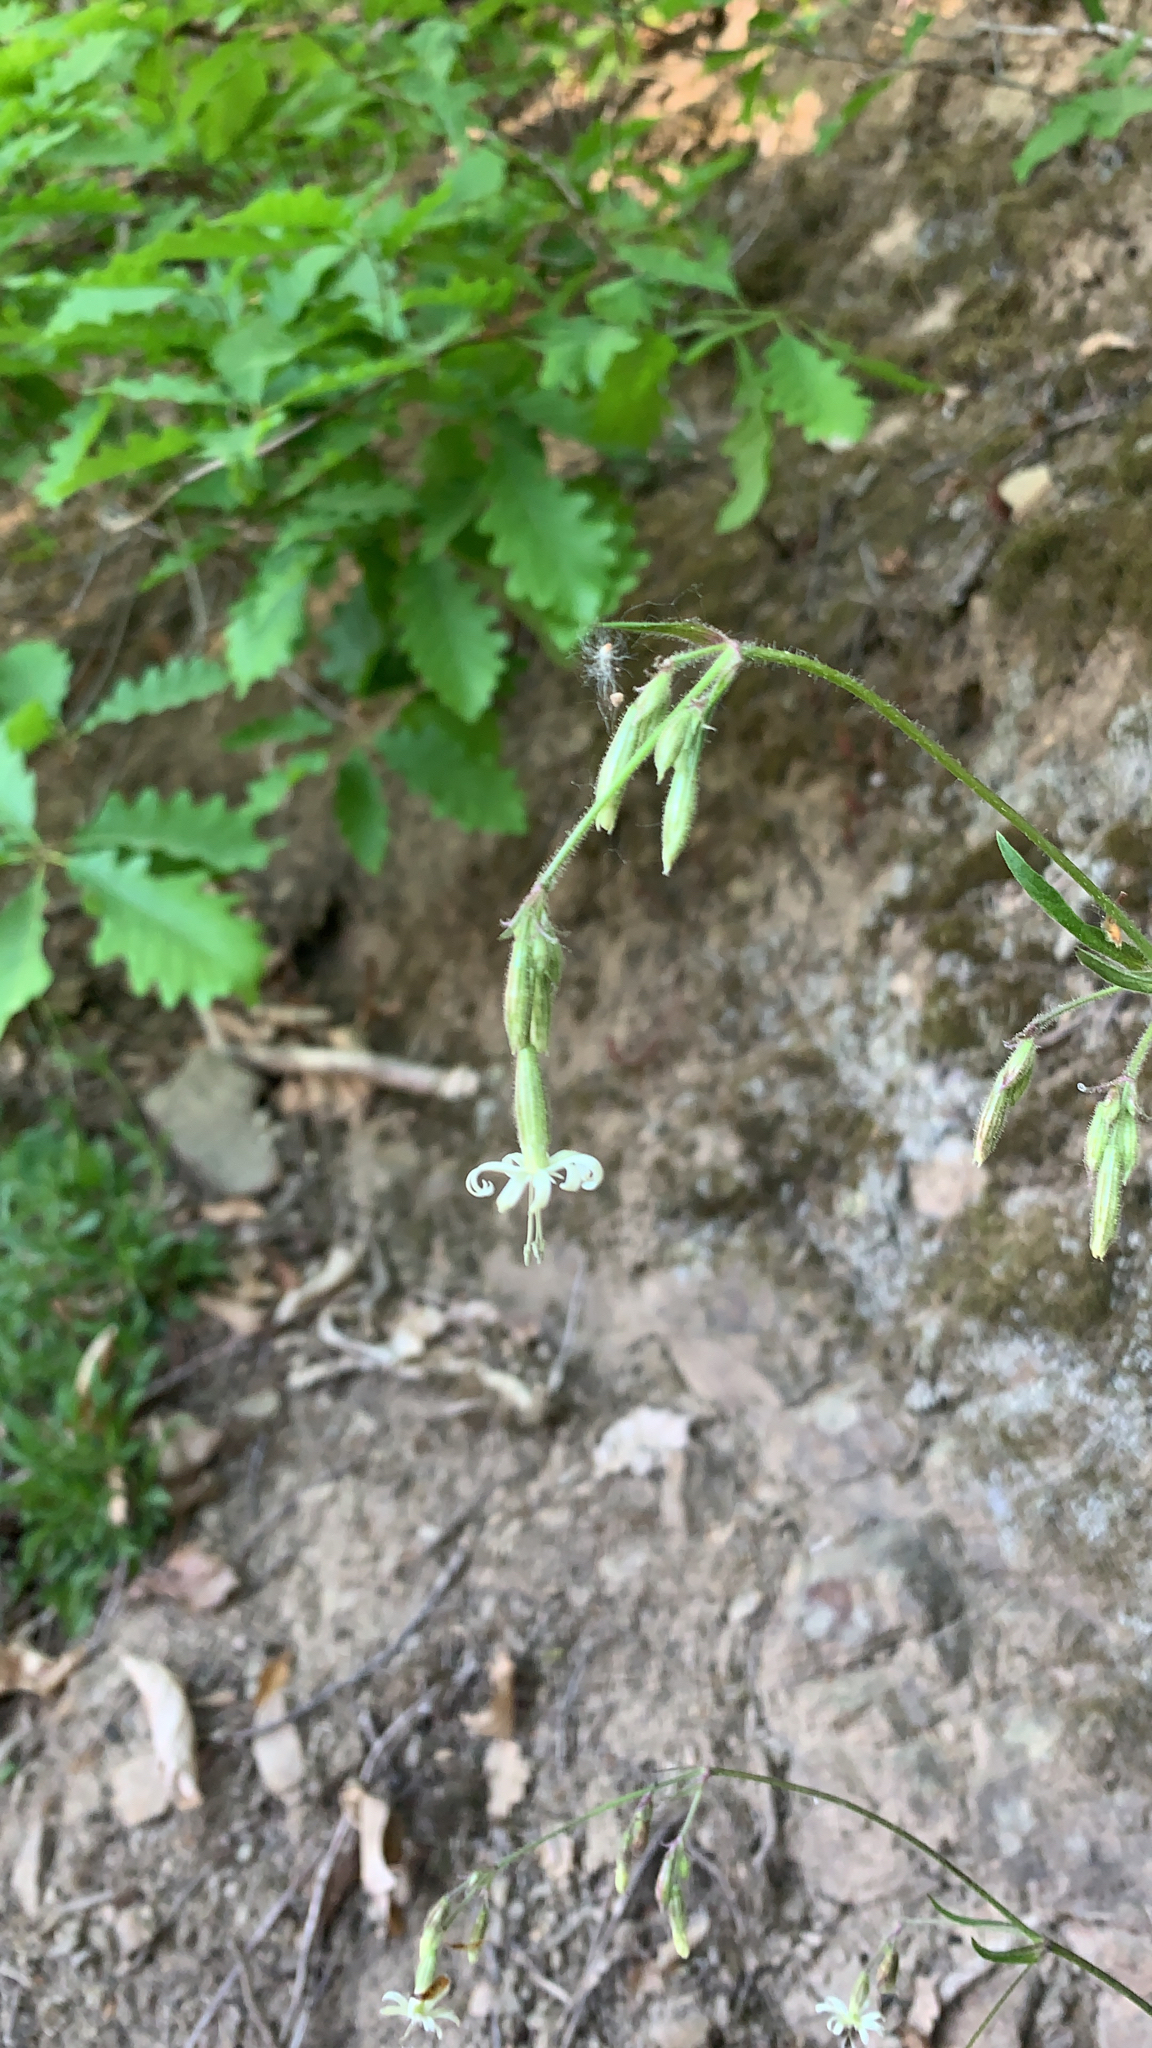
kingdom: Plantae
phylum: Tracheophyta
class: Magnoliopsida
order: Caryophyllales
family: Caryophyllaceae
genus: Silene
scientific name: Silene nutans
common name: Nottingham catchfly
